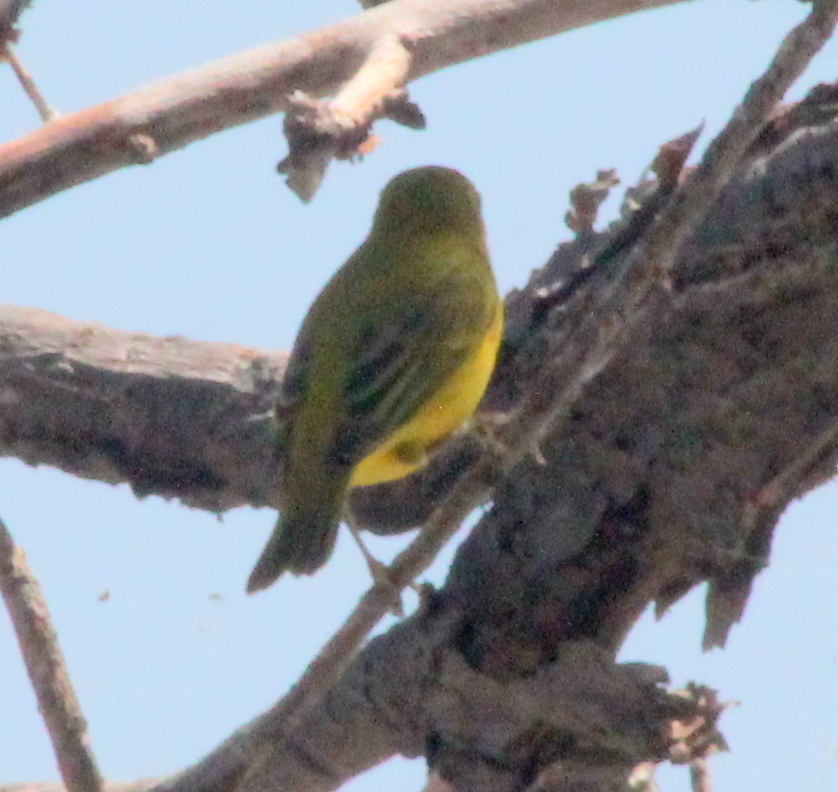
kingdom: Animalia
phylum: Chordata
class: Aves
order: Passeriformes
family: Parulidae
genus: Setophaga
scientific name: Setophaga petechia
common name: Yellow warbler
